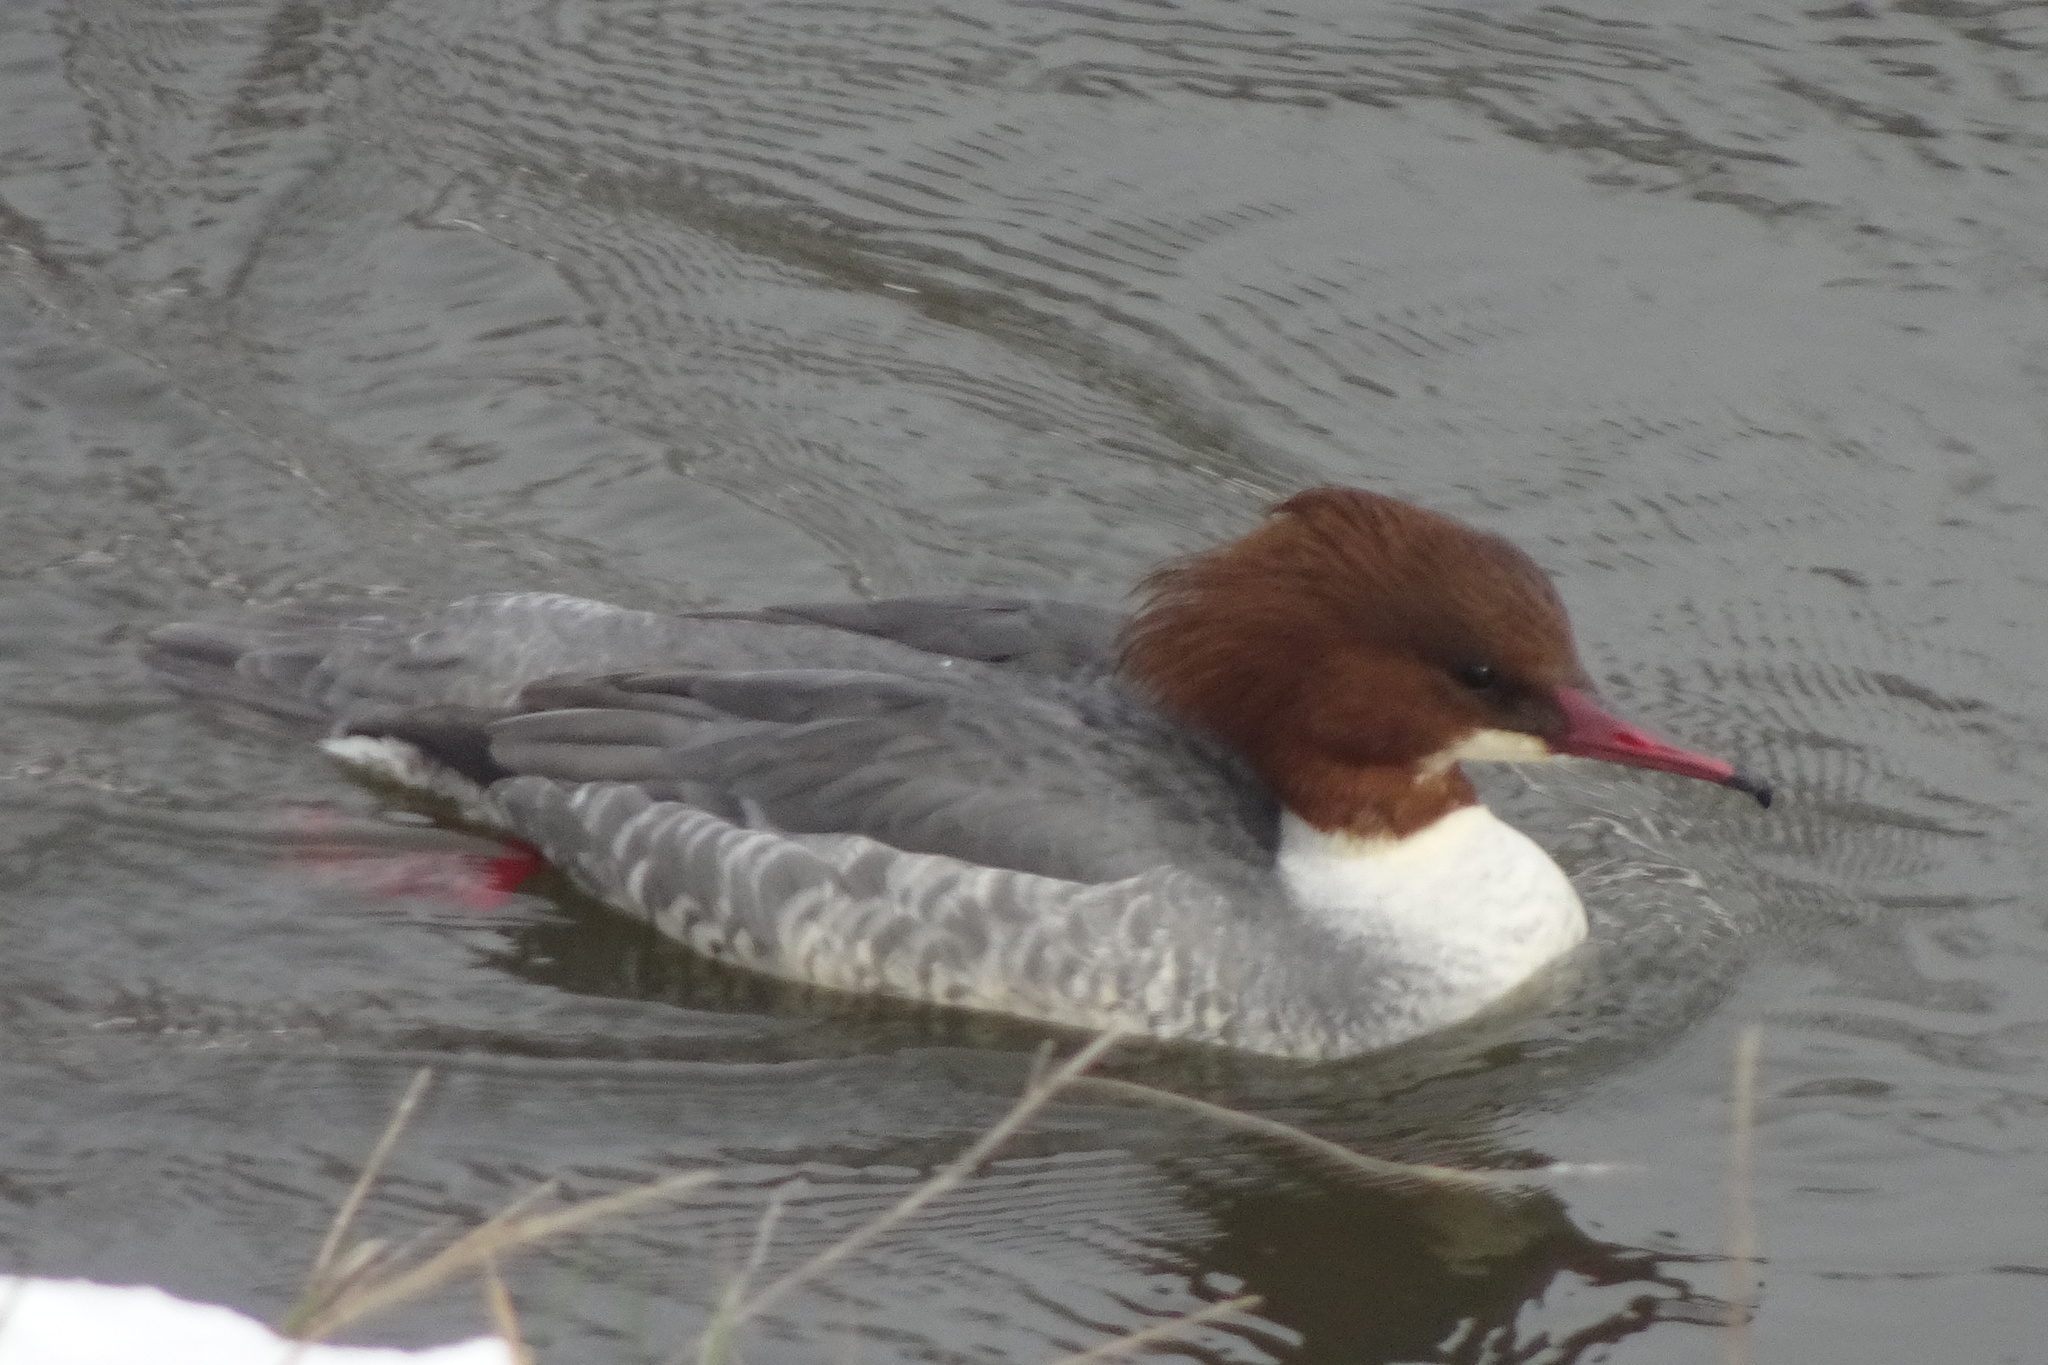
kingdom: Animalia
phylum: Chordata
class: Aves
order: Anseriformes
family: Anatidae
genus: Mergus
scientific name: Mergus merganser
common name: Common merganser
